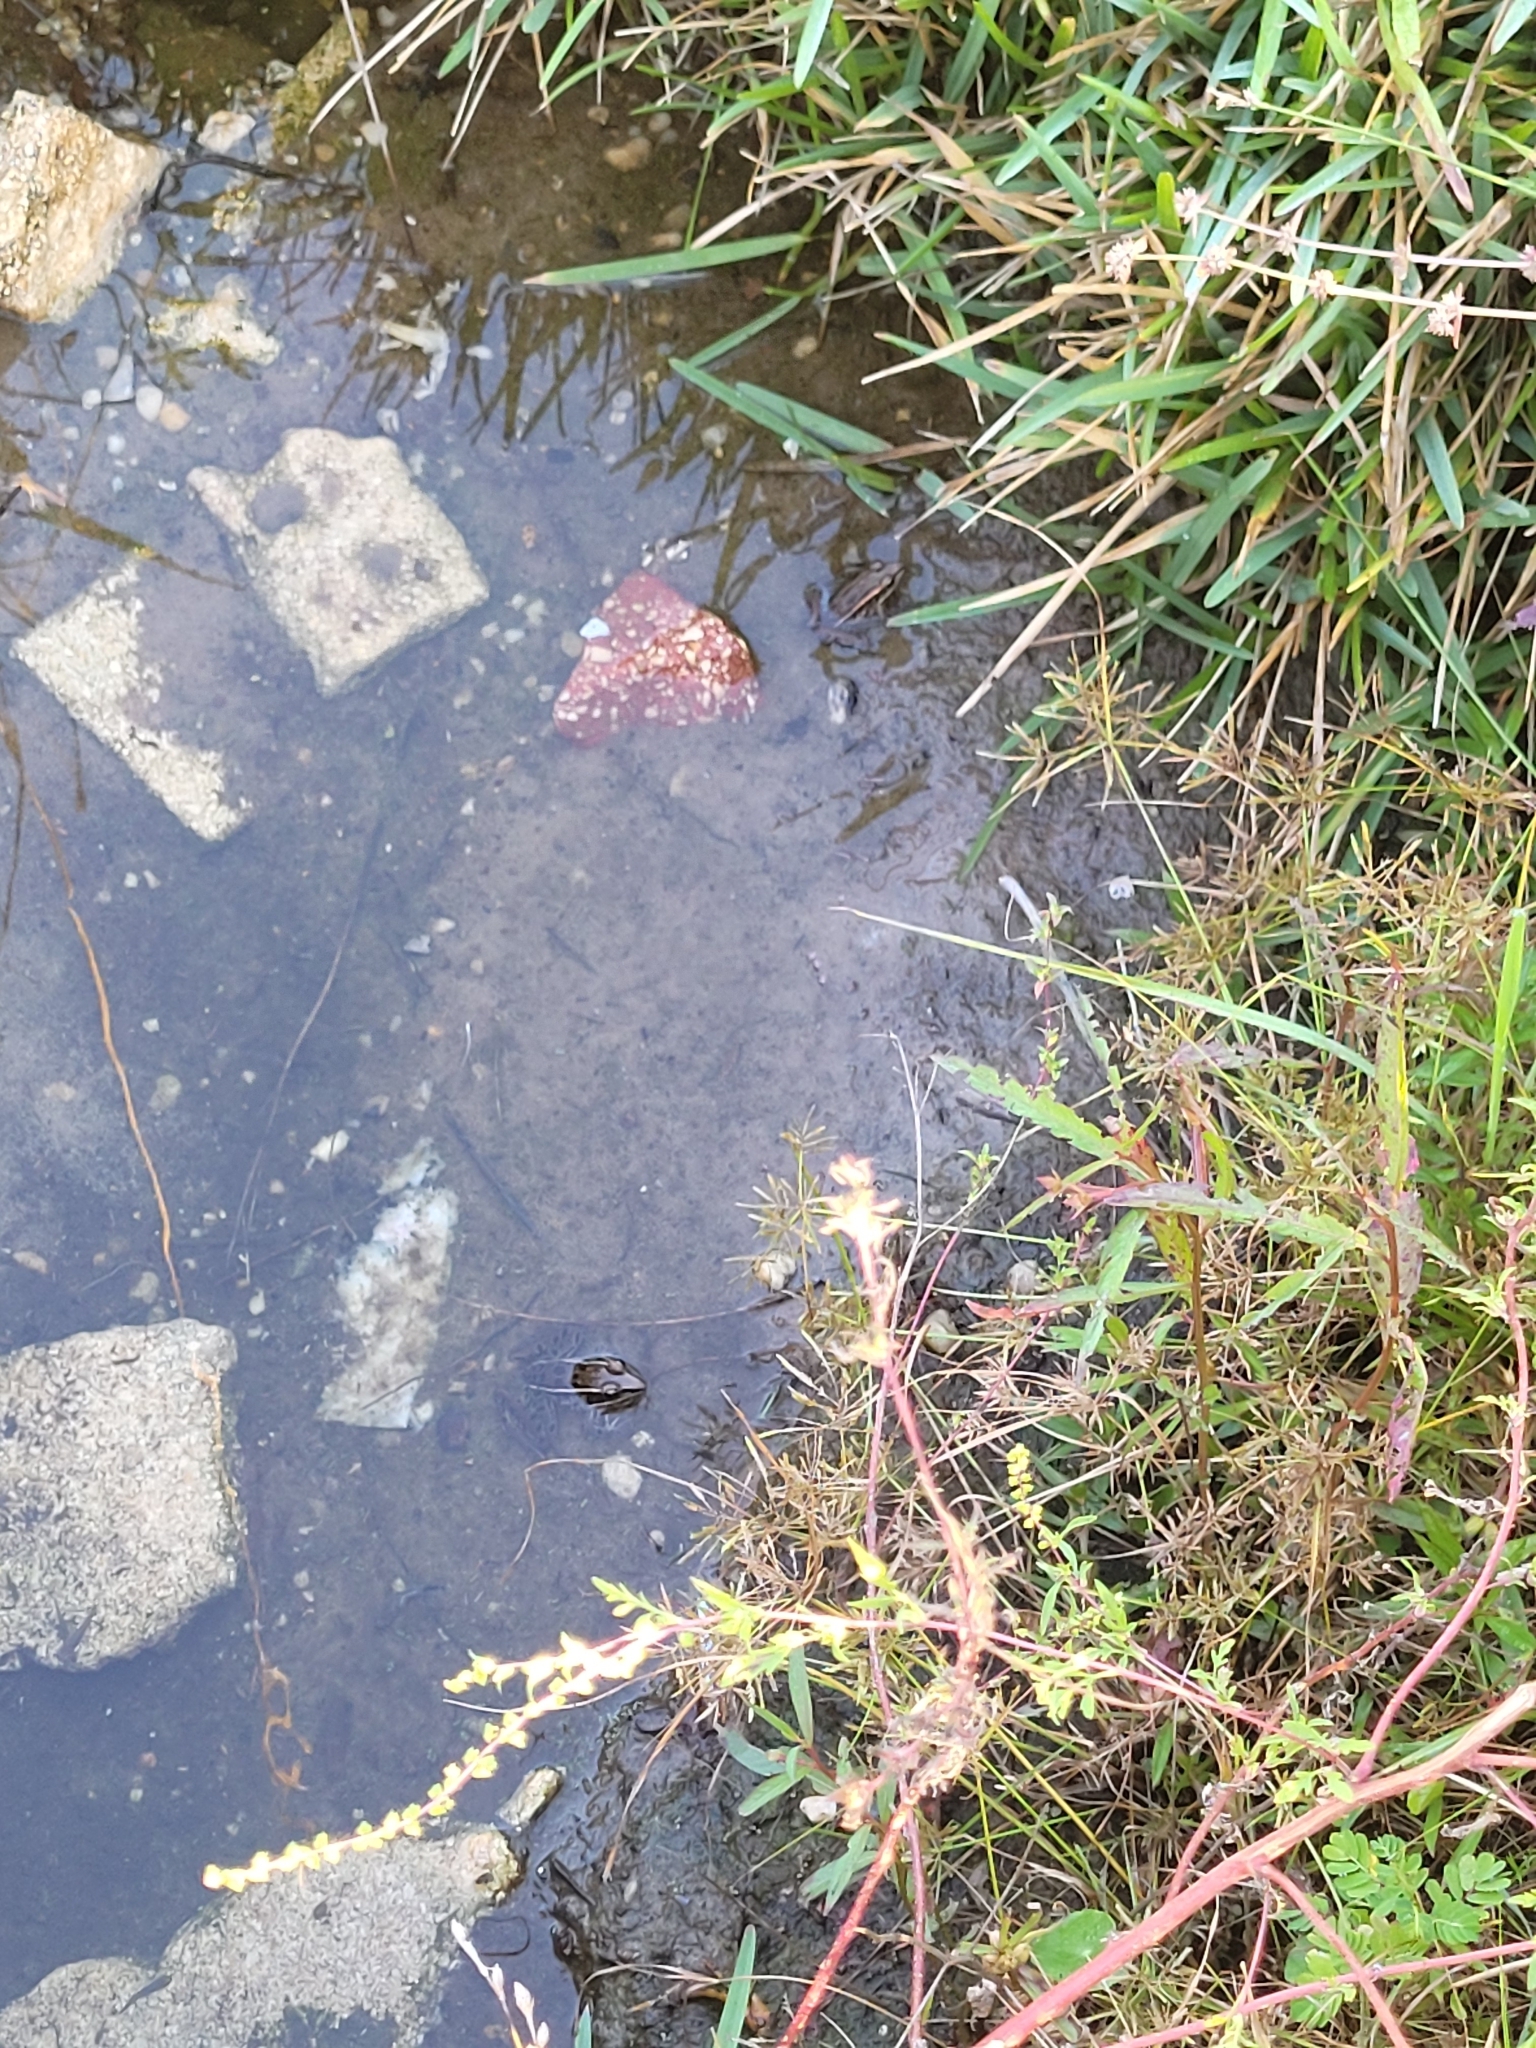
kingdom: Animalia
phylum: Chordata
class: Amphibia
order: Anura
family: Ranidae
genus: Lithobates
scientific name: Lithobates sphenocephalus
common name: Southern leopard frog
